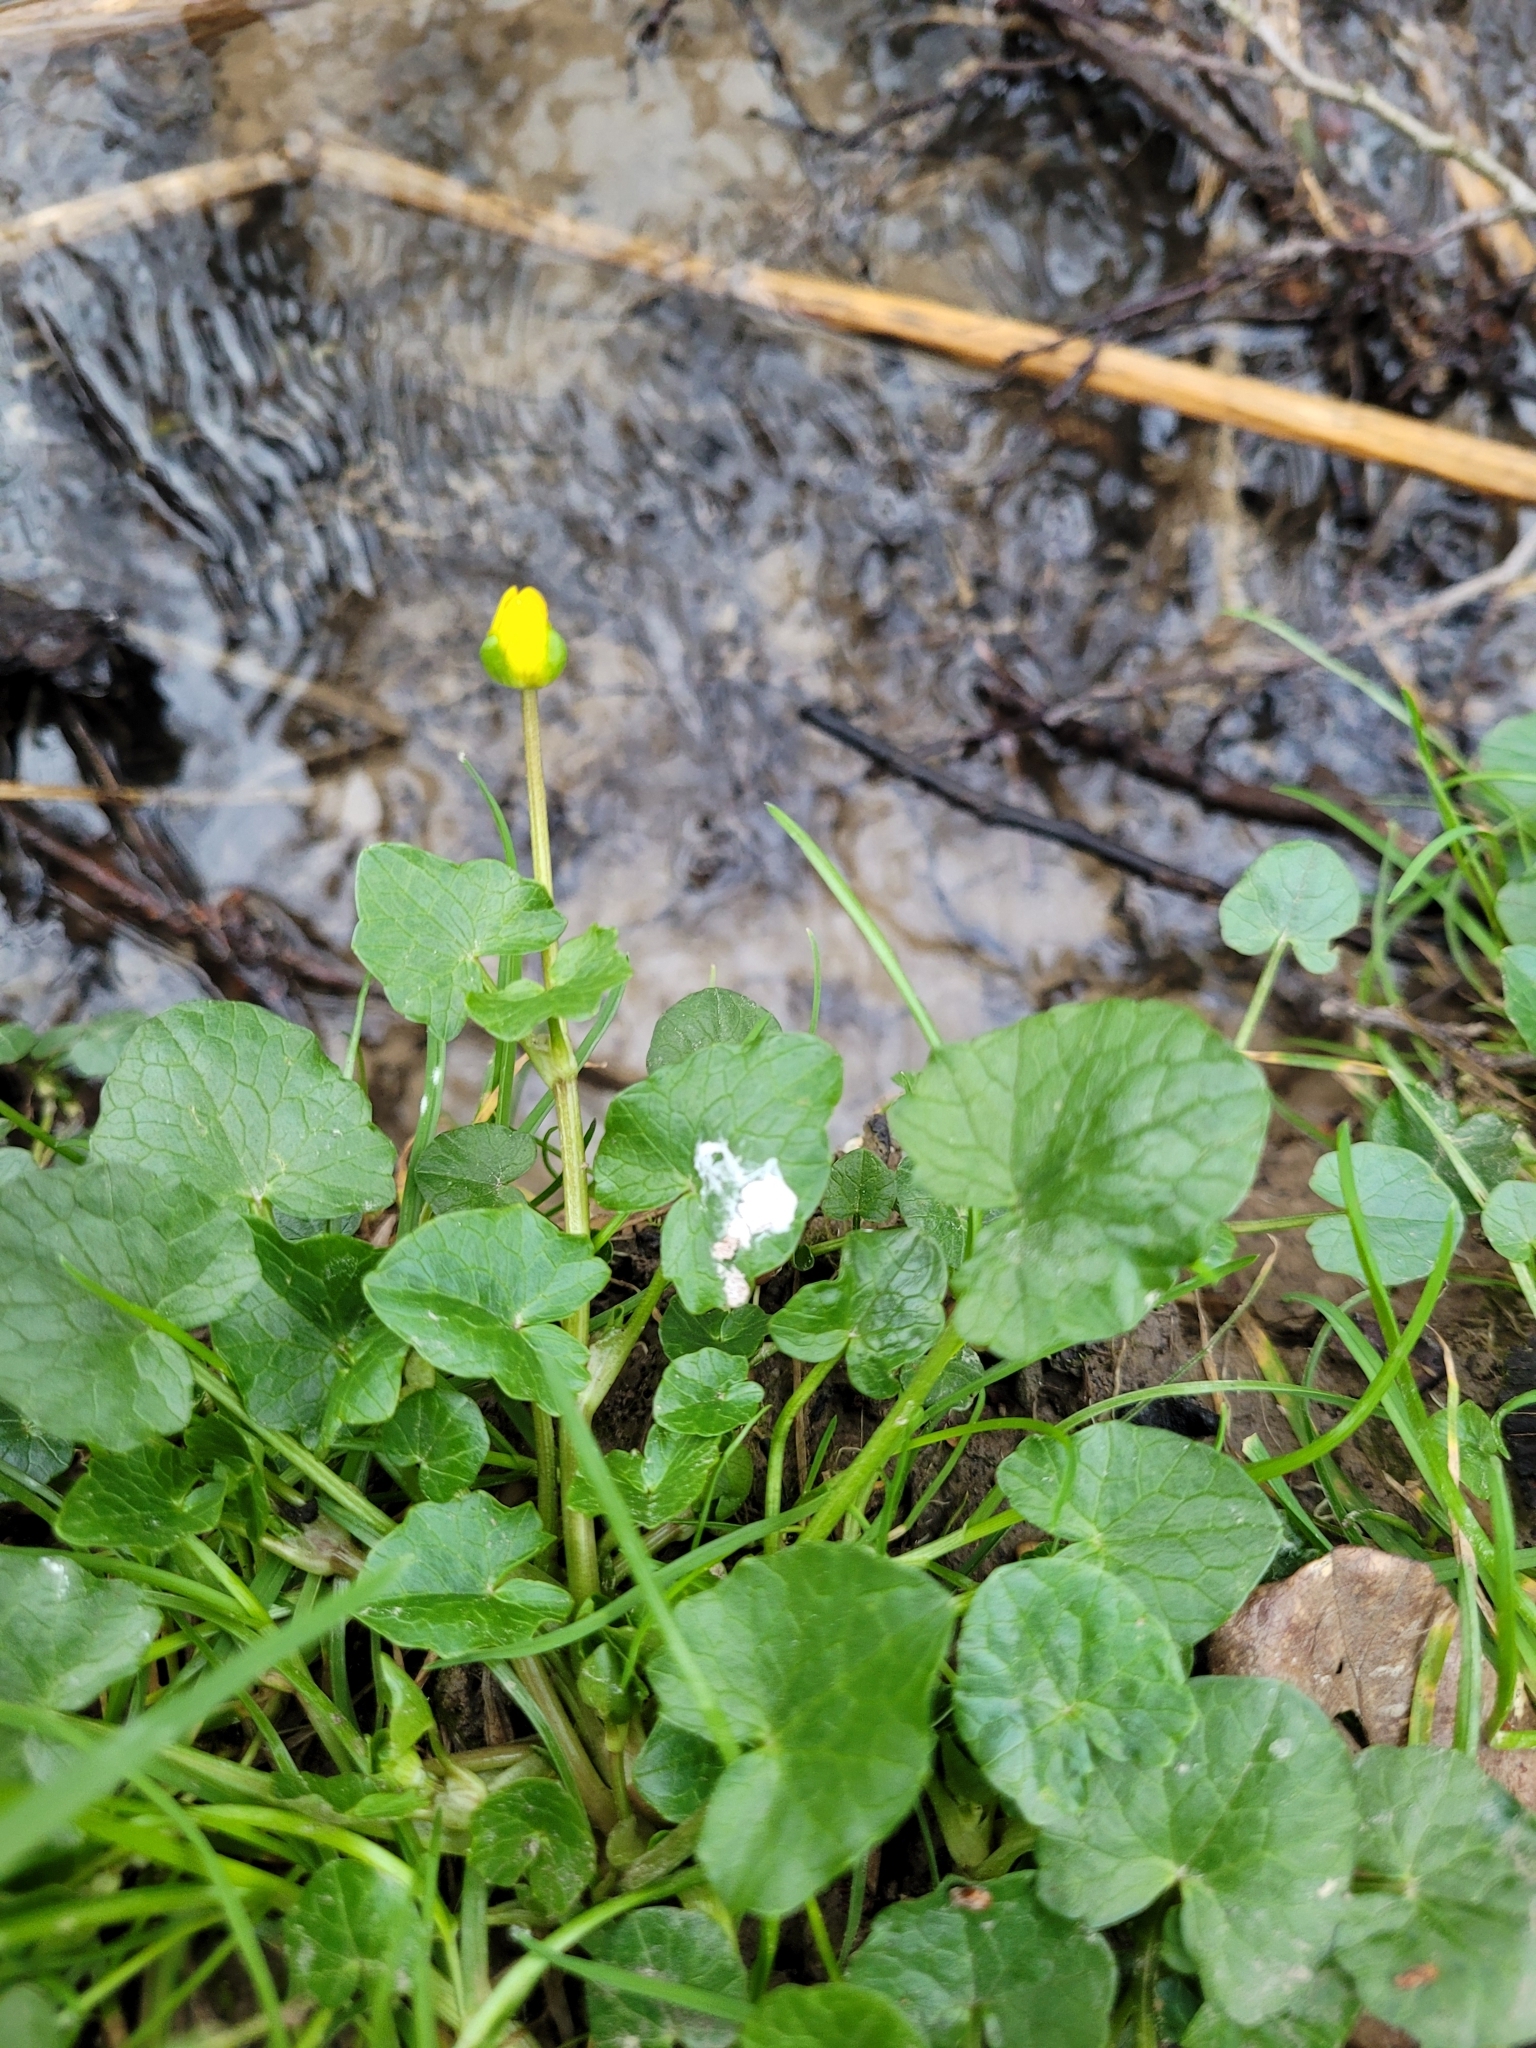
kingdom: Plantae
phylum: Tracheophyta
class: Magnoliopsida
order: Ranunculales
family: Ranunculaceae
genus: Ficaria
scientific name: Ficaria verna
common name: Lesser celandine
